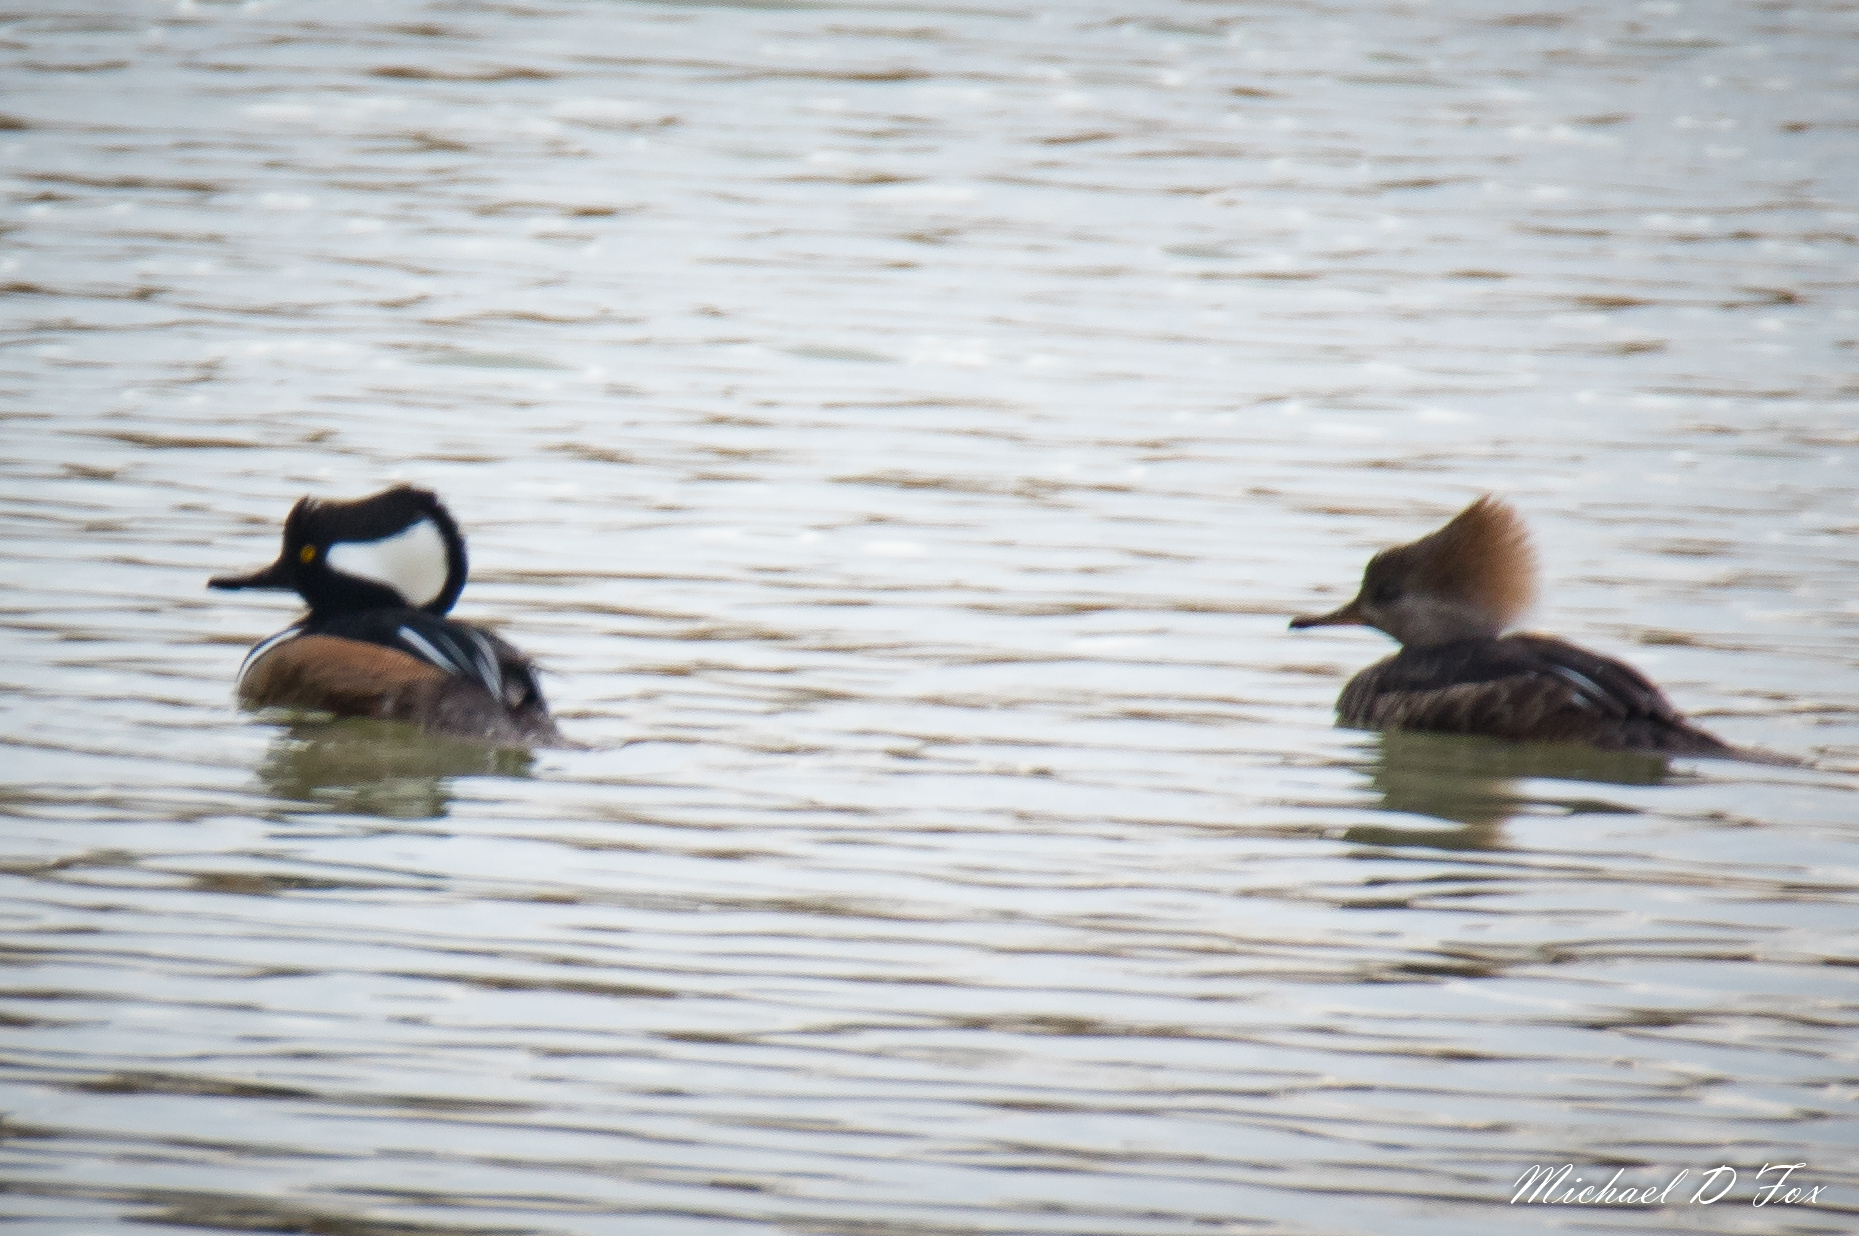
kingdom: Animalia
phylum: Chordata
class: Aves
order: Anseriformes
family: Anatidae
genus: Lophodytes
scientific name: Lophodytes cucullatus
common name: Hooded merganser
